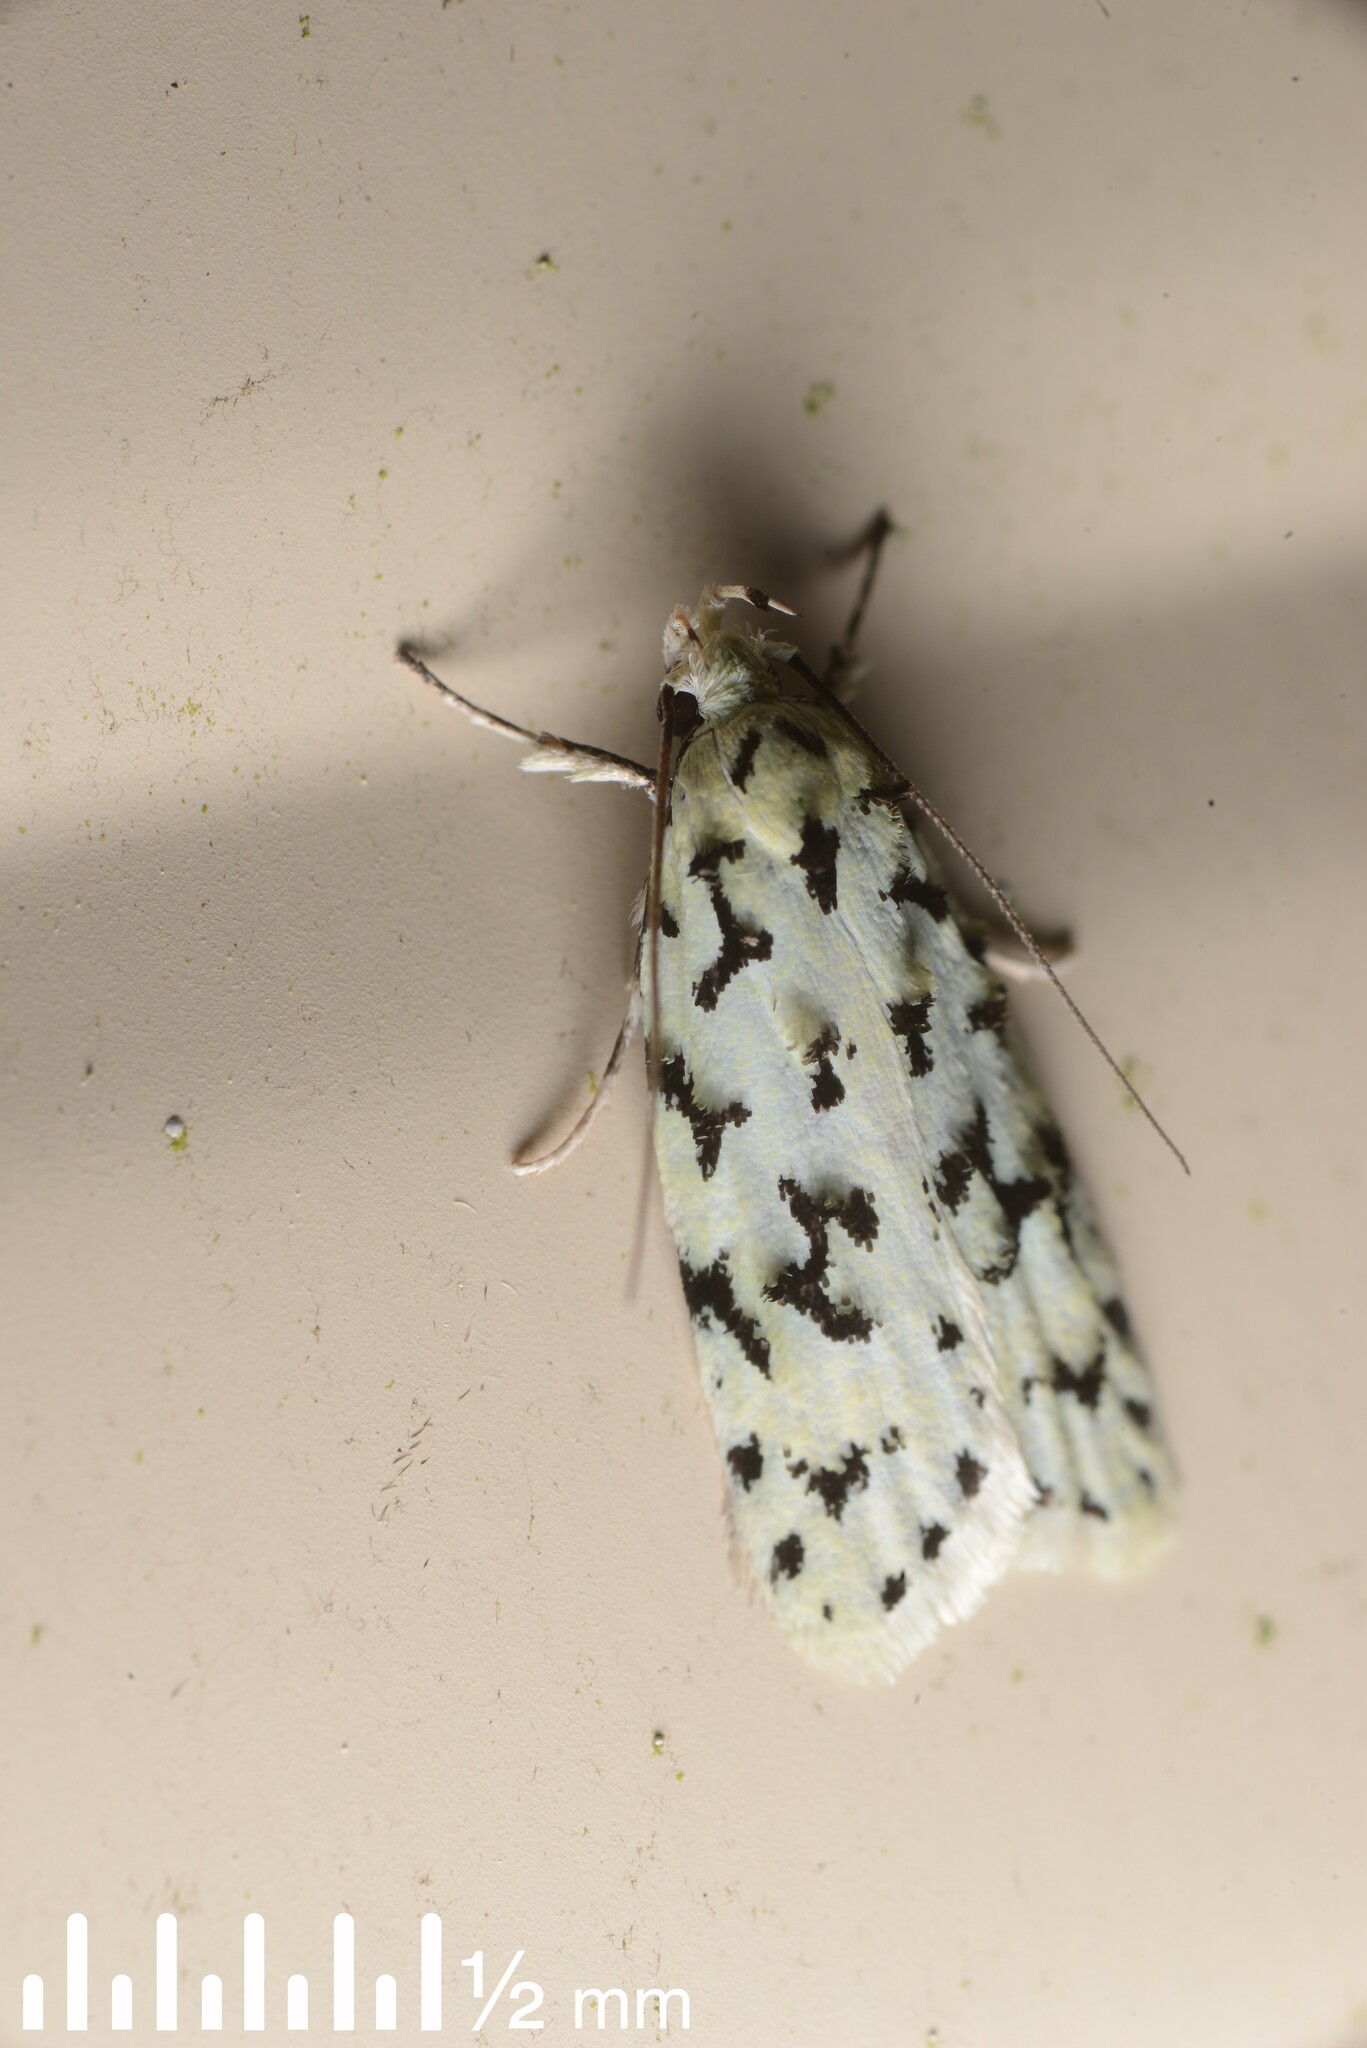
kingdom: Animalia
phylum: Arthropoda
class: Insecta
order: Lepidoptera
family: Oecophoridae
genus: Izatha
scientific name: Izatha huttoni
